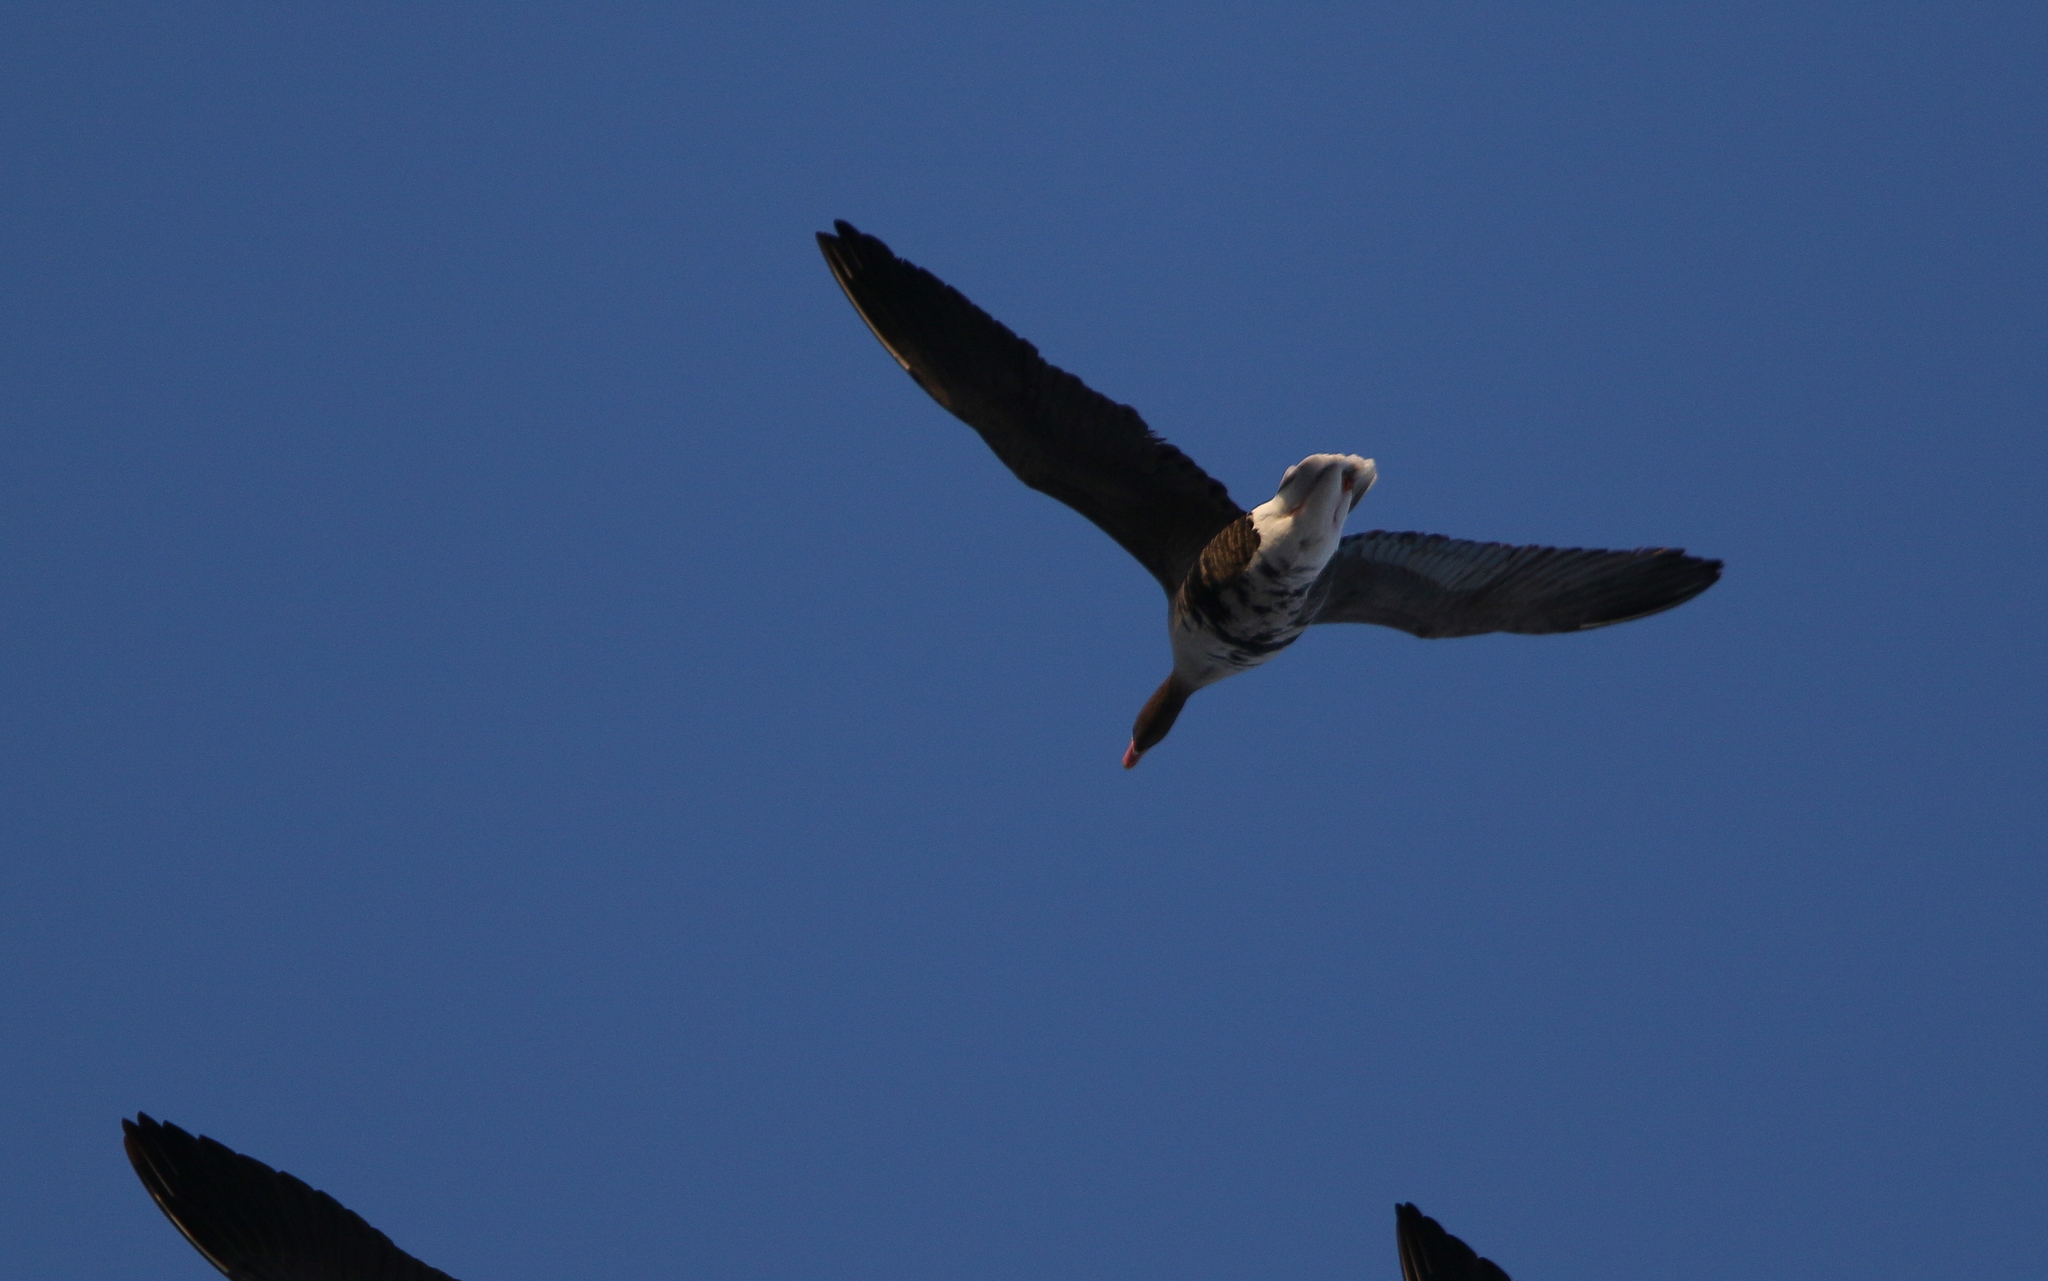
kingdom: Animalia
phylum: Chordata
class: Aves
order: Anseriformes
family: Anatidae
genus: Anser
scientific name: Anser albifrons
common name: Greater white-fronted goose
